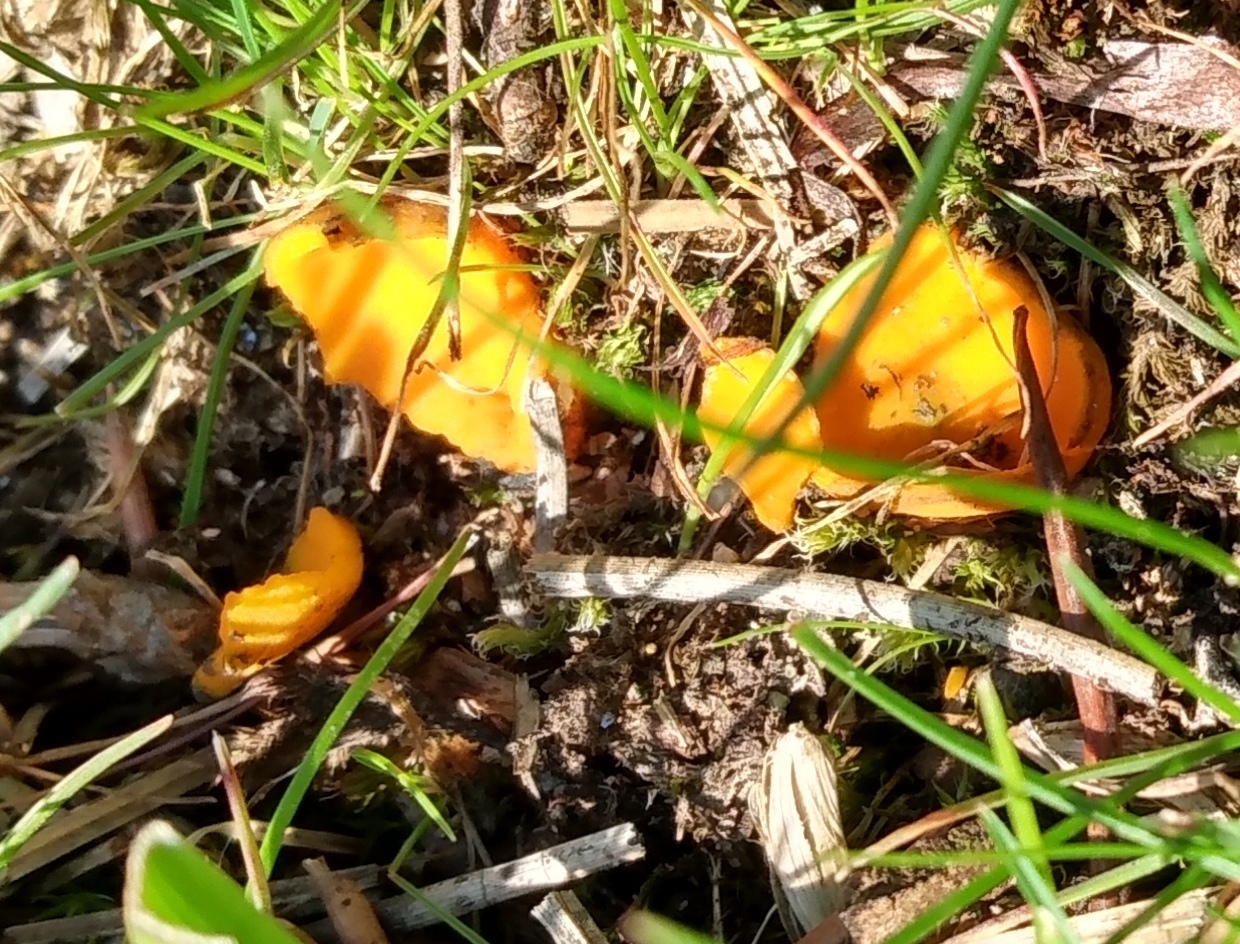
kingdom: Fungi
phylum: Ascomycota
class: Pezizomycetes
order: Pezizales
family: Caloscyphaceae
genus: Caloscypha
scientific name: Caloscypha fulgens
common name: Golden cup
